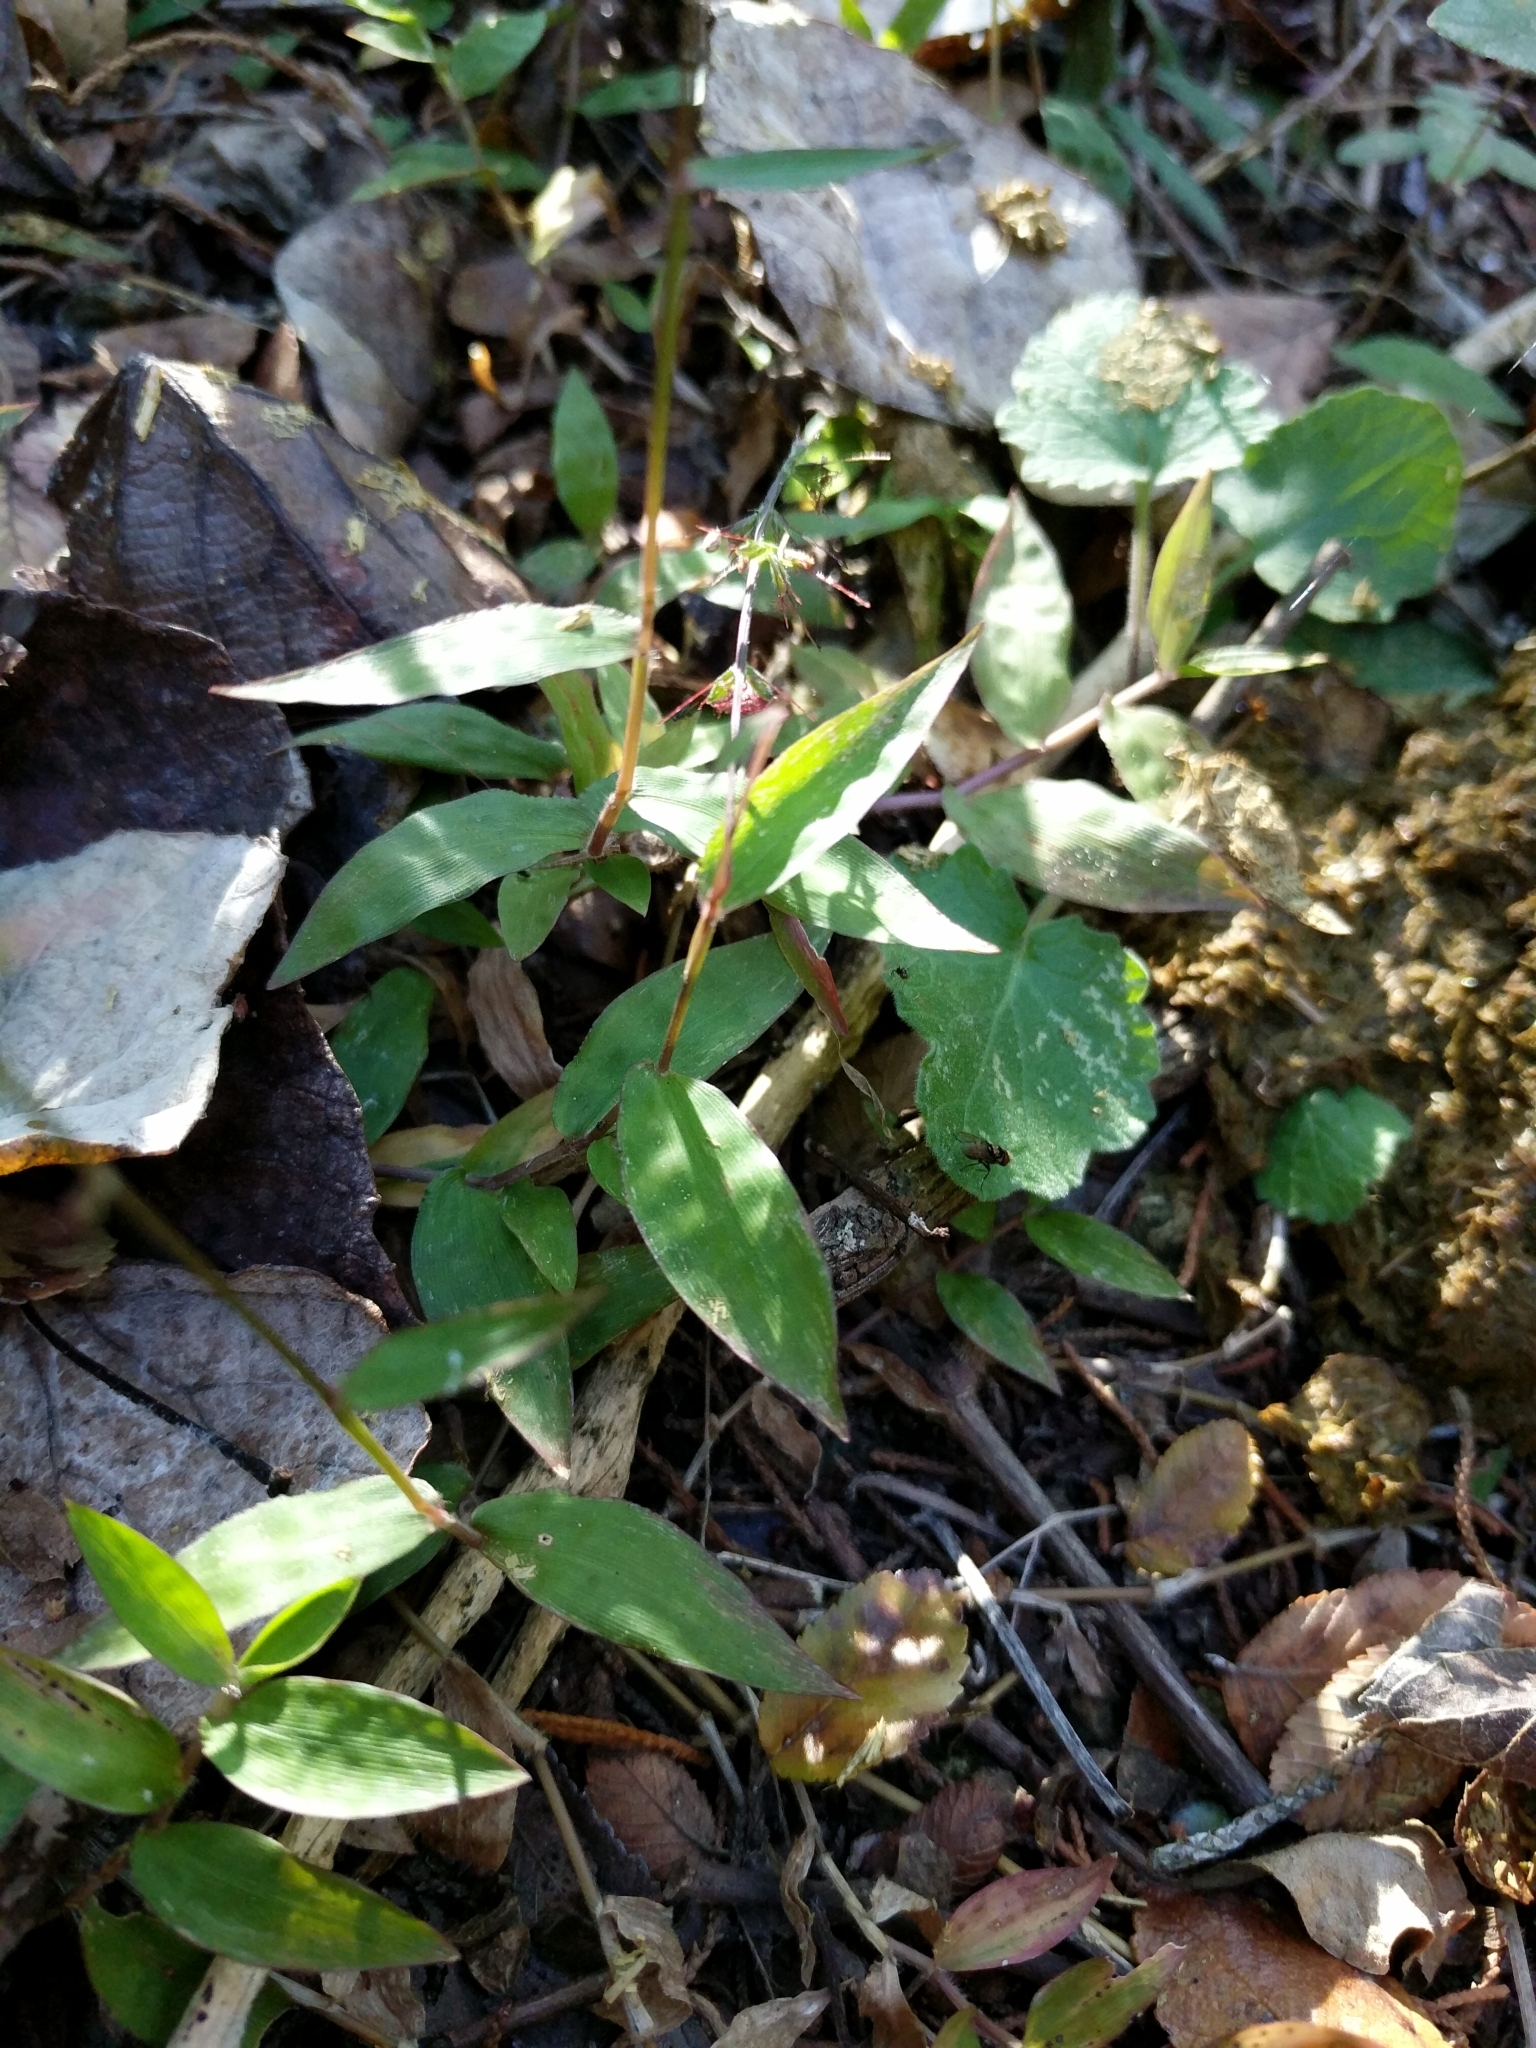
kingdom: Plantae
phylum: Tracheophyta
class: Liliopsida
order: Poales
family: Poaceae
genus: Oplismenus
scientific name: Oplismenus hirtellus
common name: Basketgrass
